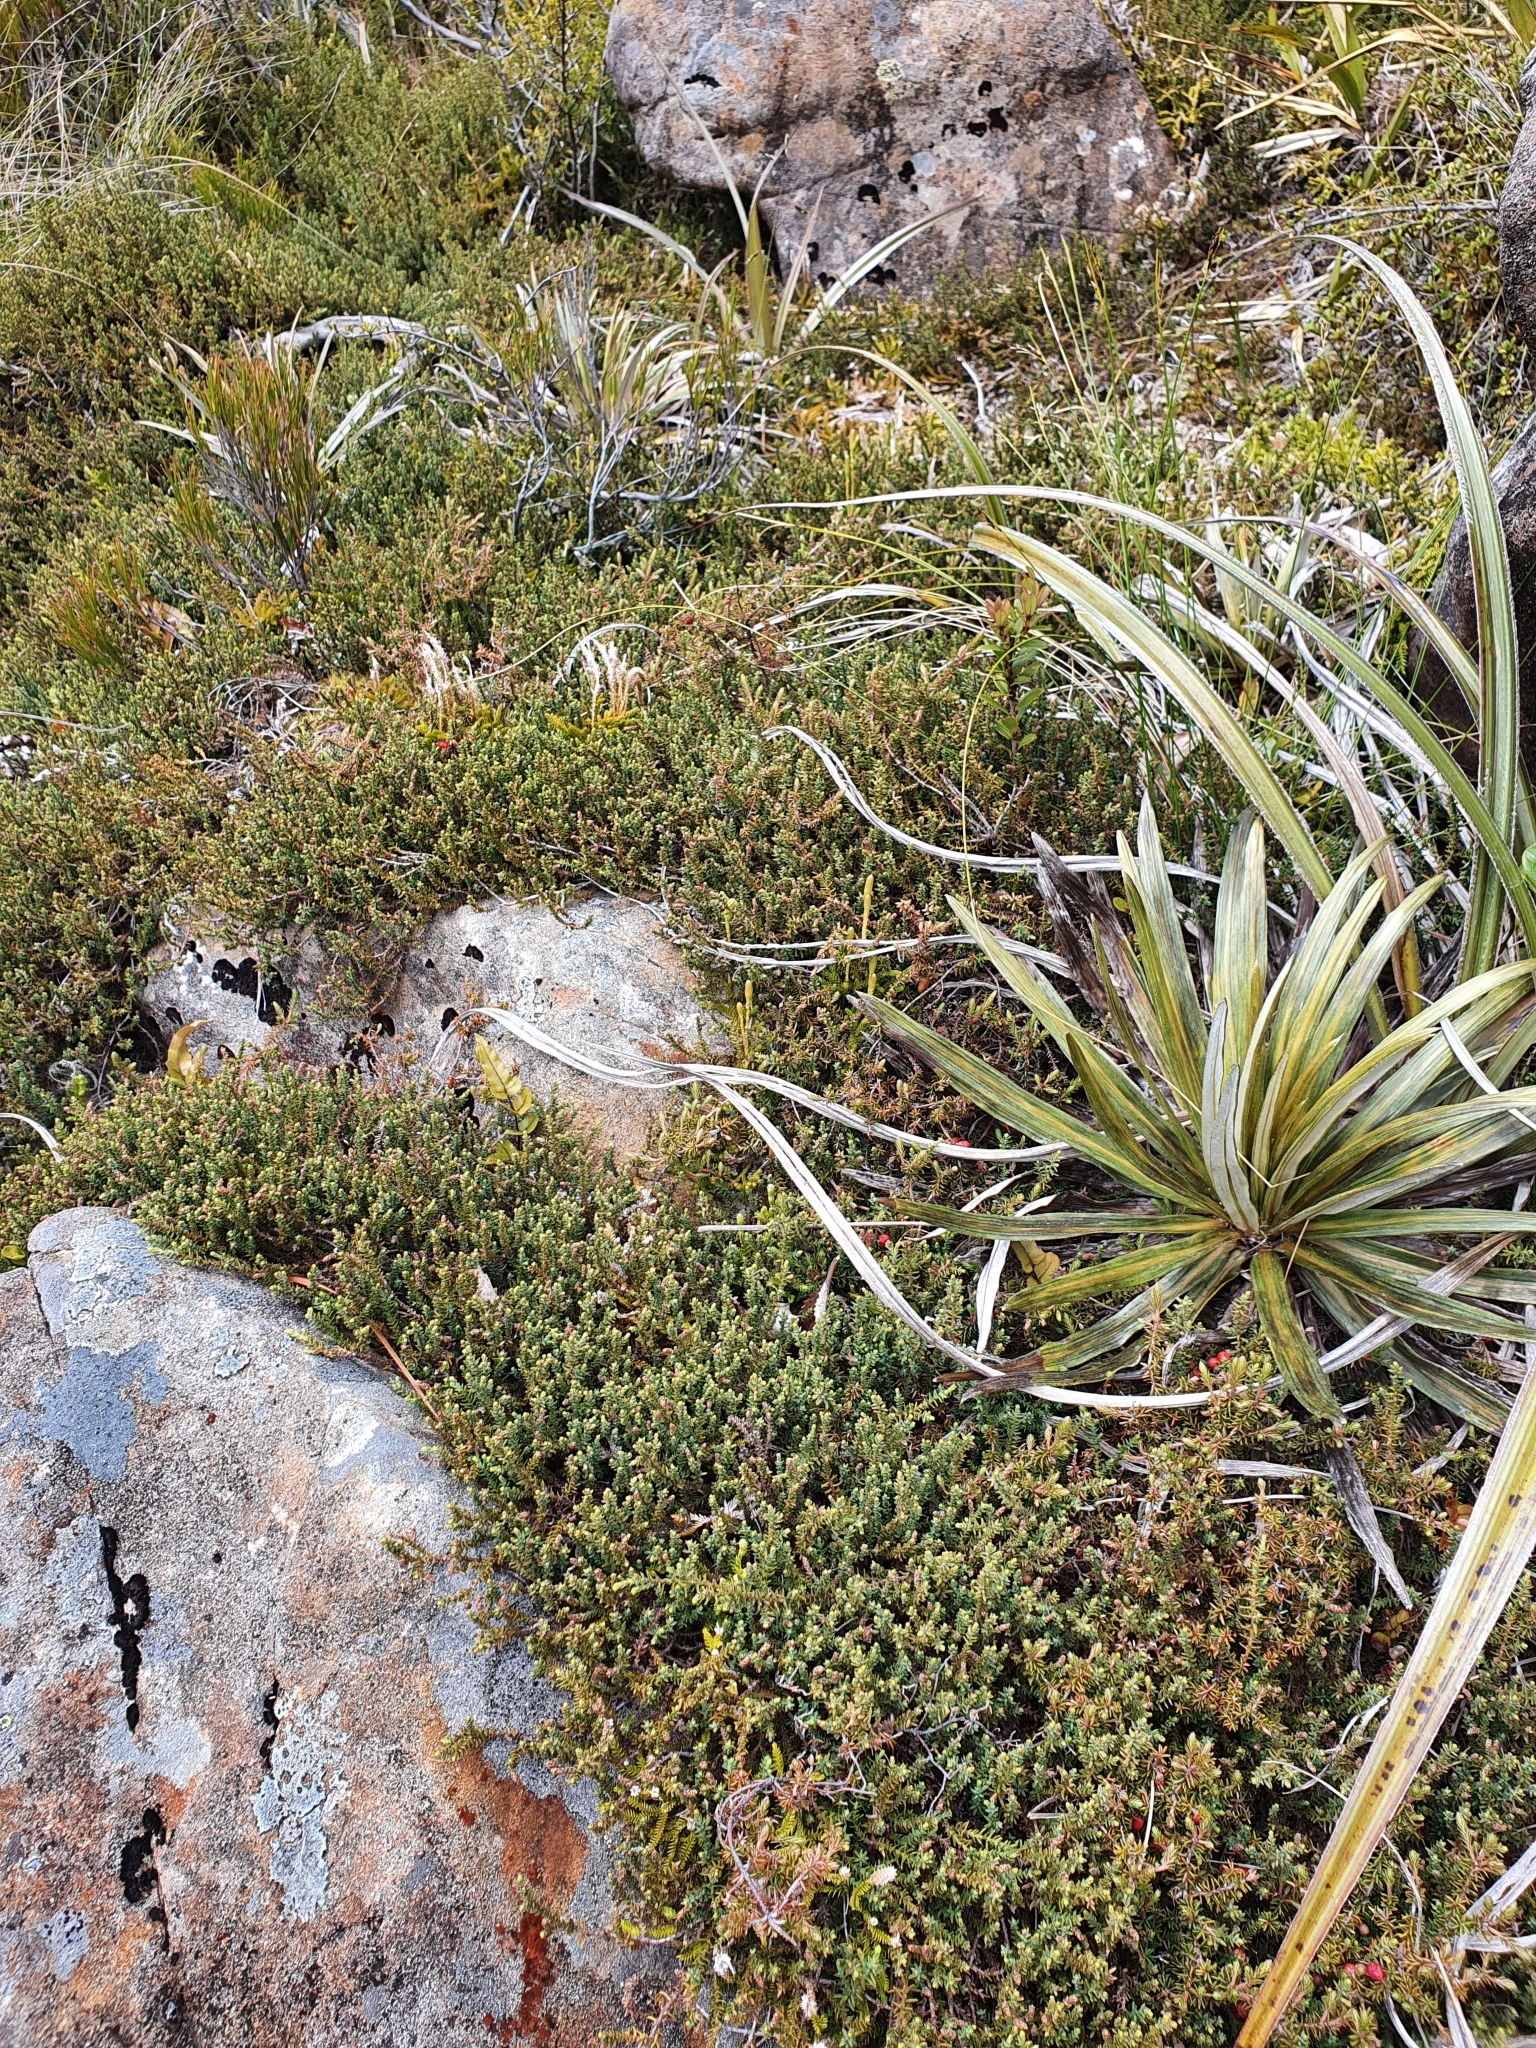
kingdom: Plantae
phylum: Tracheophyta
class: Pinopsida
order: Pinales
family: Podocarpaceae
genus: Lepidothamnus
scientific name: Lepidothamnus laxifolius
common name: Pygmy pine
